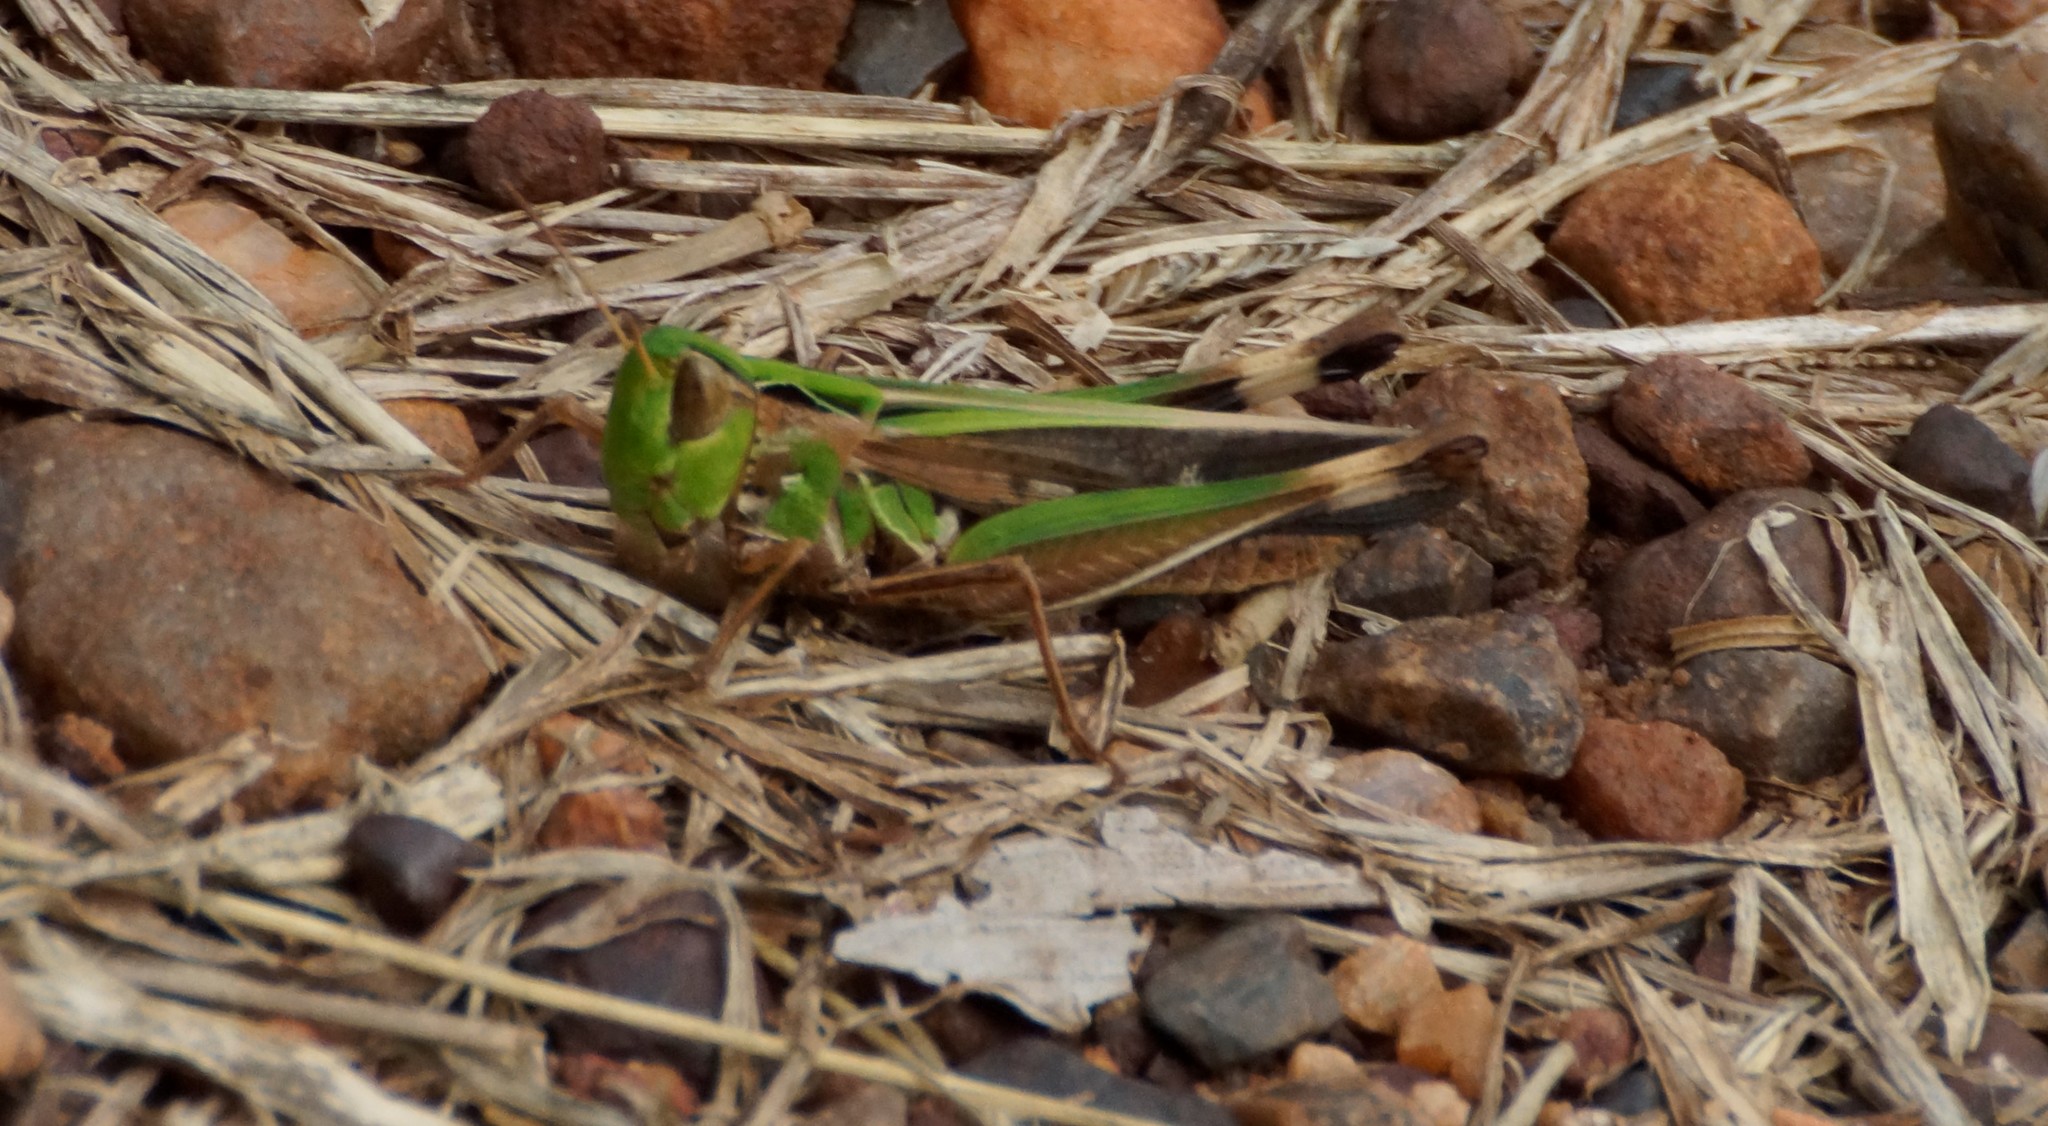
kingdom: Animalia
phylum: Arthropoda
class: Insecta
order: Orthoptera
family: Acrididae
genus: Caledia
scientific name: Caledia captiva
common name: Caledia
